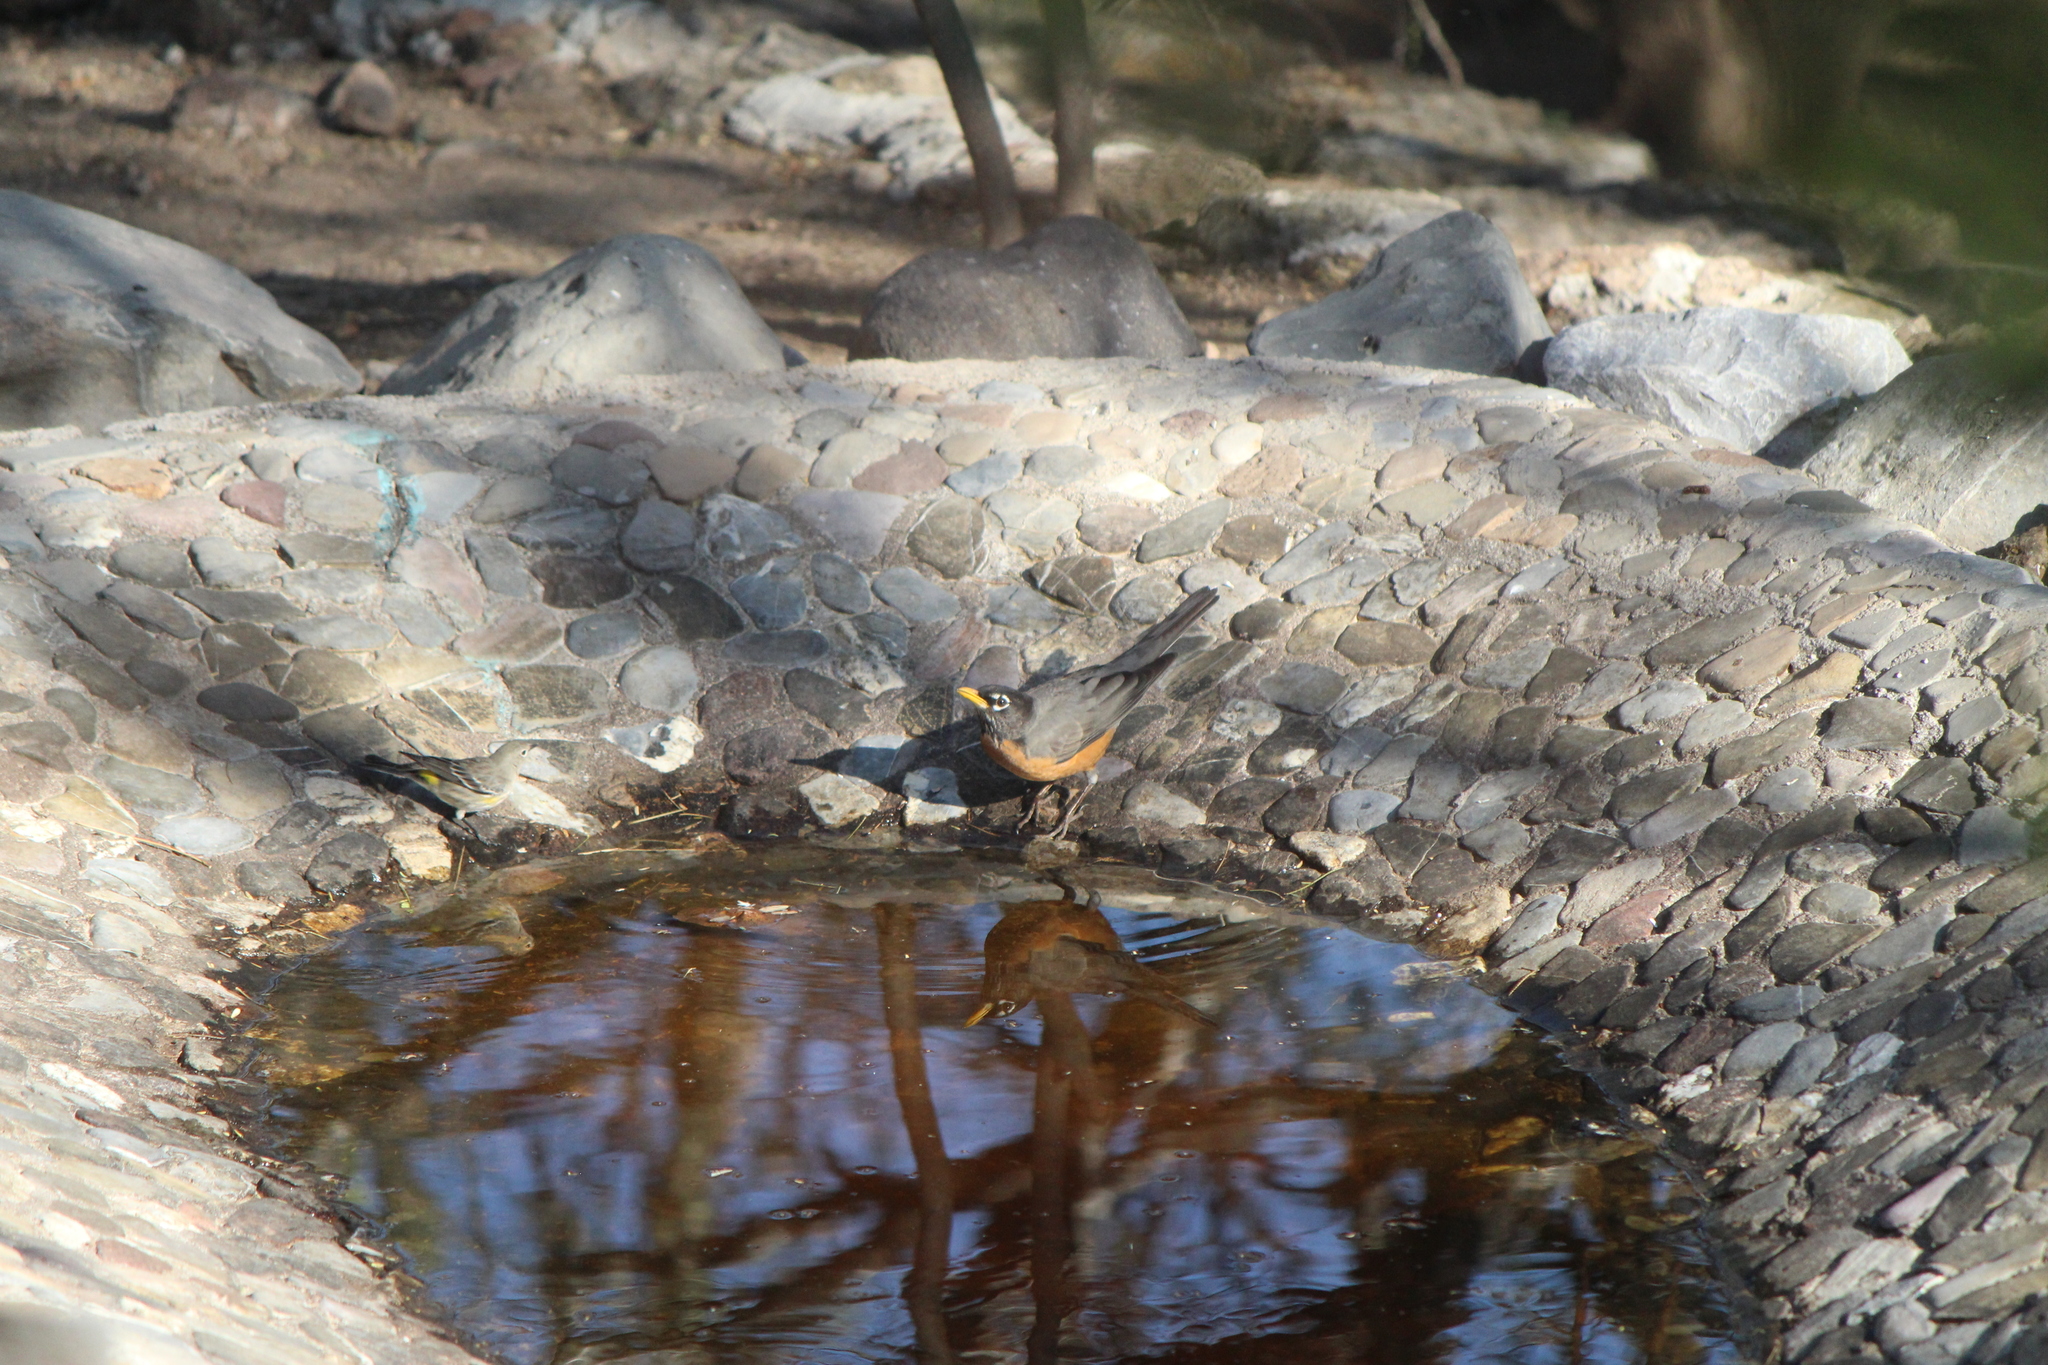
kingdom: Animalia
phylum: Chordata
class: Aves
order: Passeriformes
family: Turdidae
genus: Turdus
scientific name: Turdus migratorius
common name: American robin
